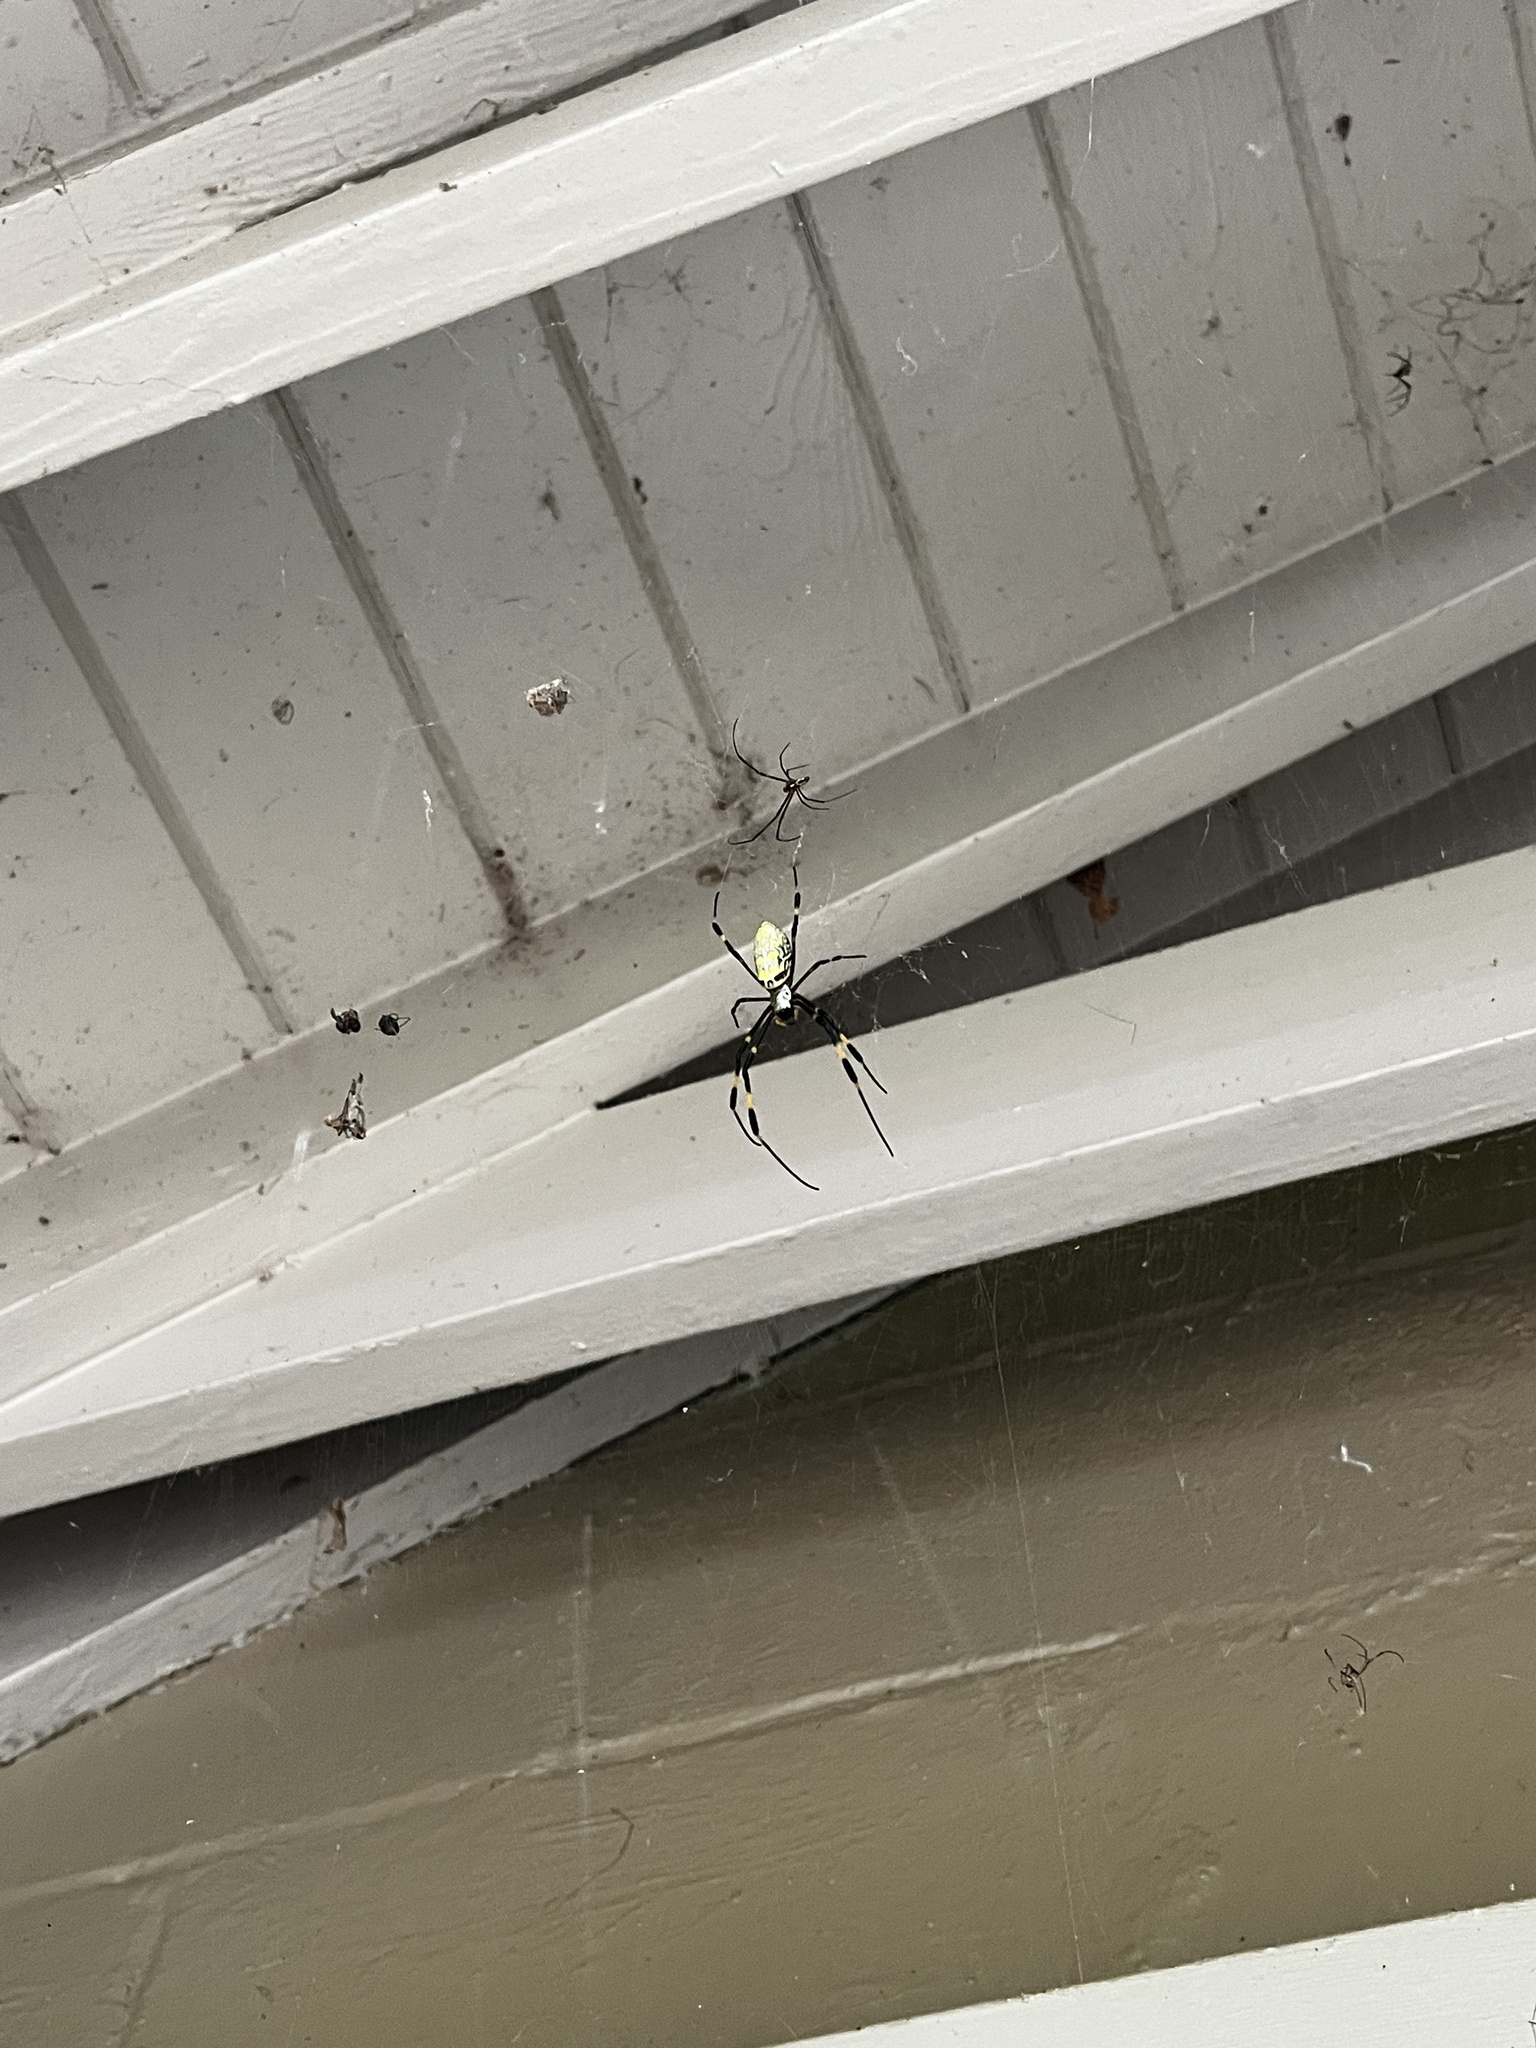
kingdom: Animalia
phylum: Arthropoda
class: Arachnida
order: Araneae
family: Araneidae
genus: Trichonephila
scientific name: Trichonephila clavata
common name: Jorō spider
